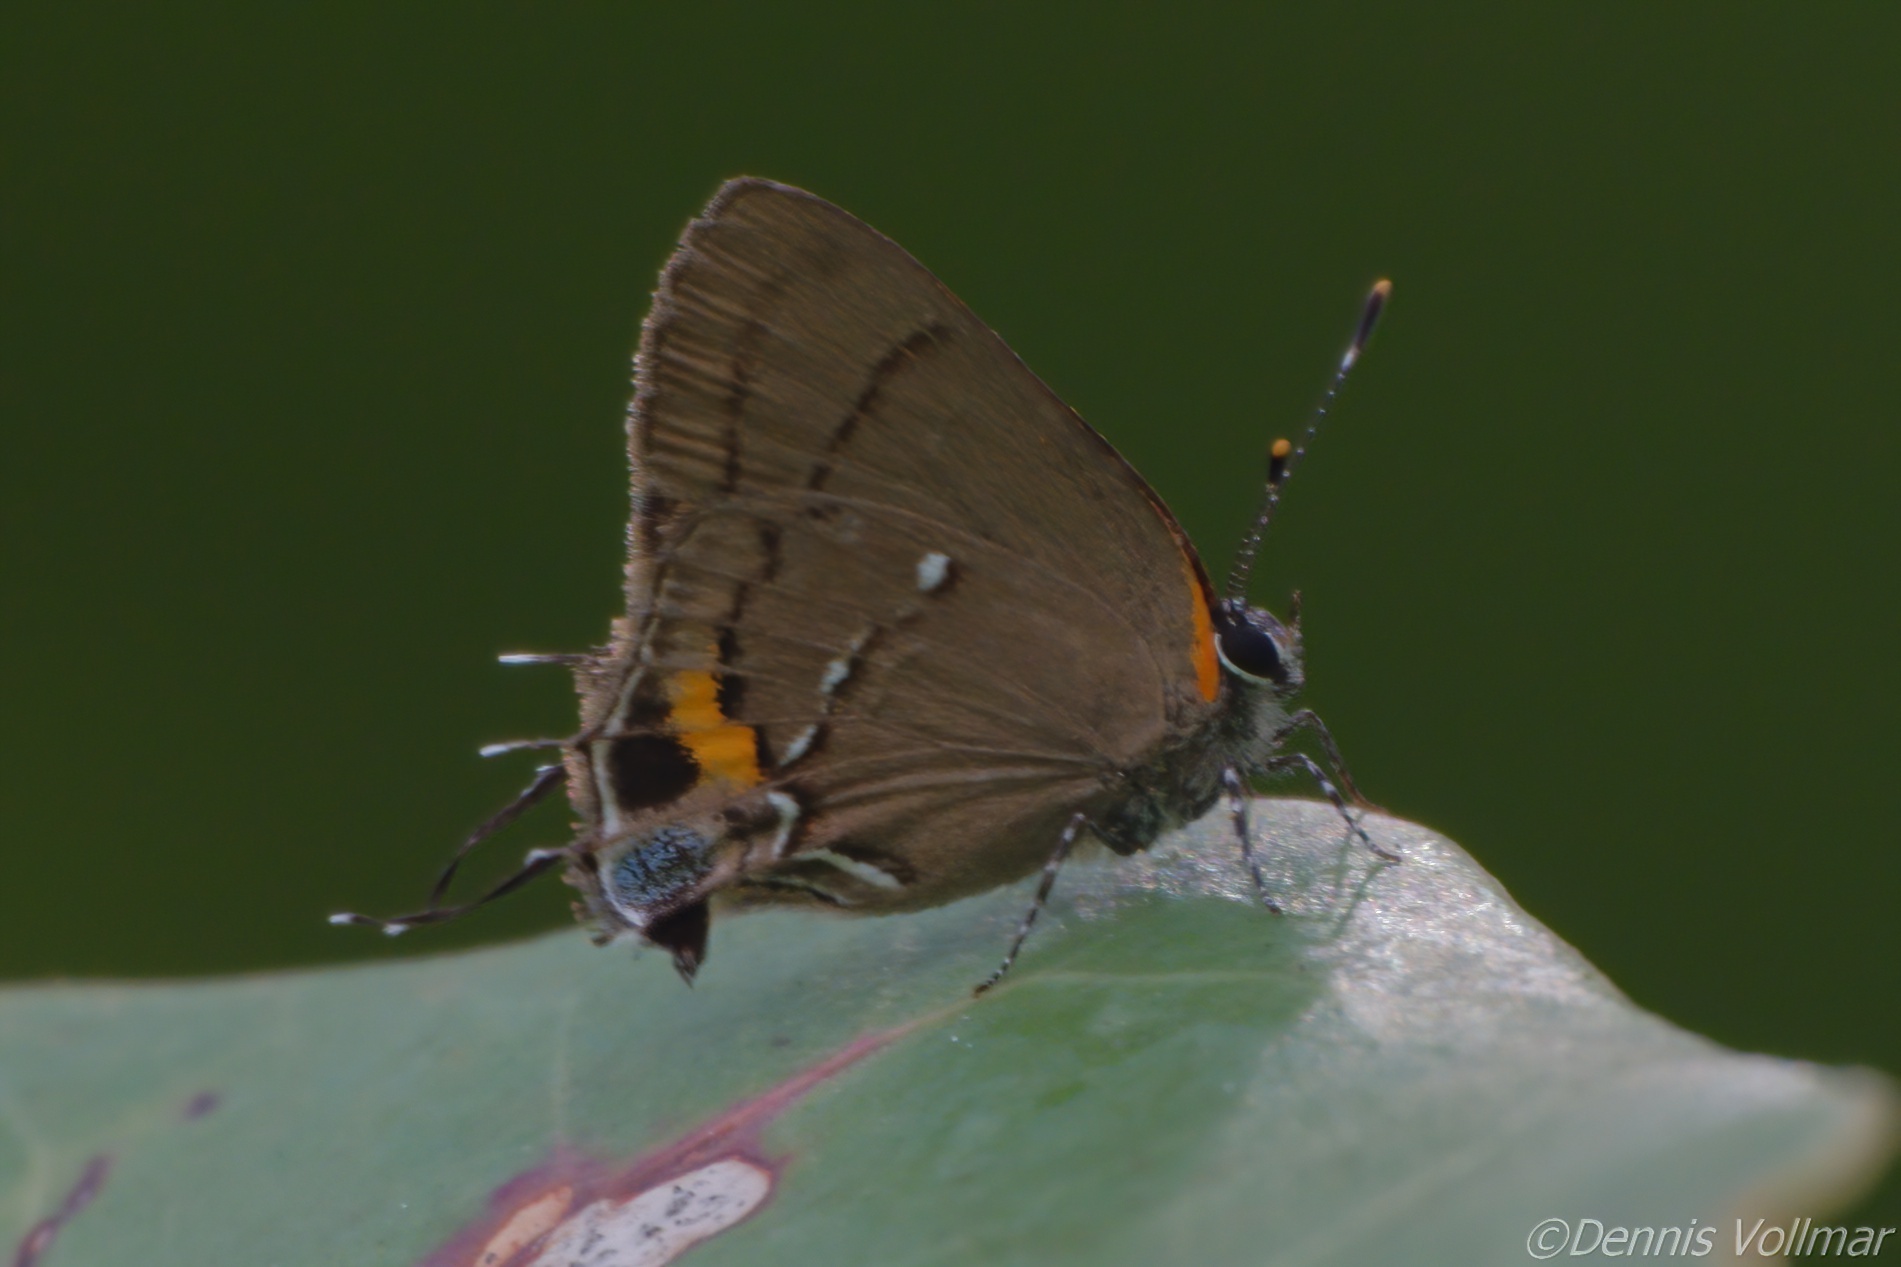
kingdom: Animalia
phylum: Arthropoda
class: Insecta
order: Lepidoptera
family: Lycaenidae
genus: Thecla
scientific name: Thecla angelia
